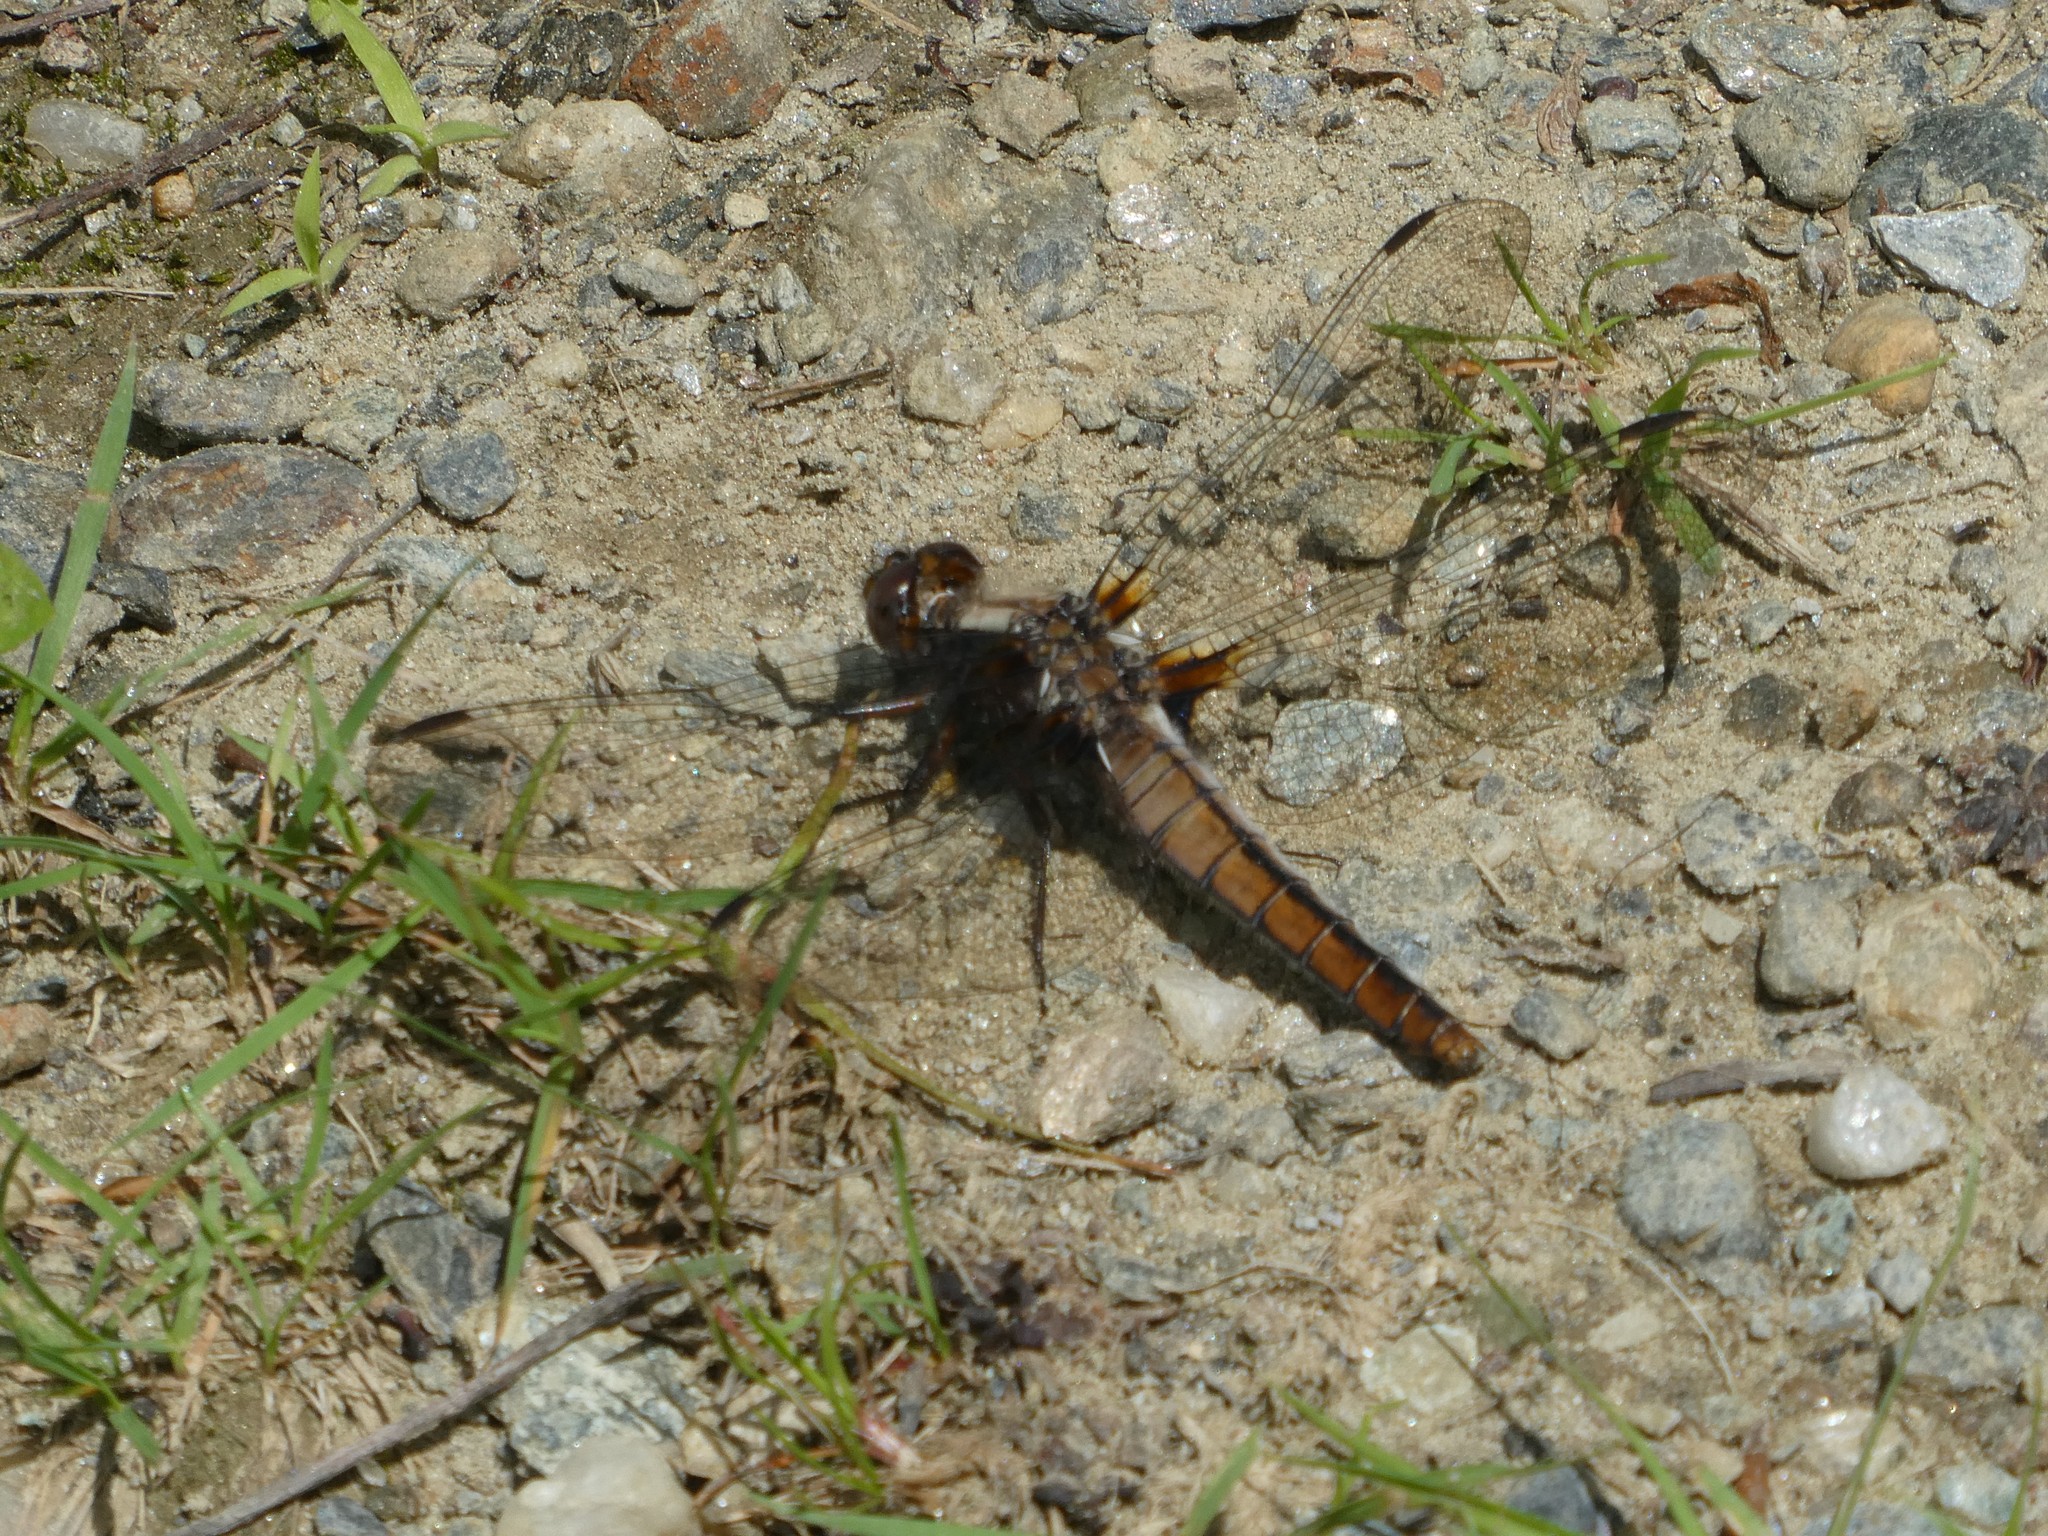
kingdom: Animalia
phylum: Arthropoda
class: Insecta
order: Odonata
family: Libellulidae
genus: Ladona
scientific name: Ladona julia
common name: Chalk-fronted corporal
